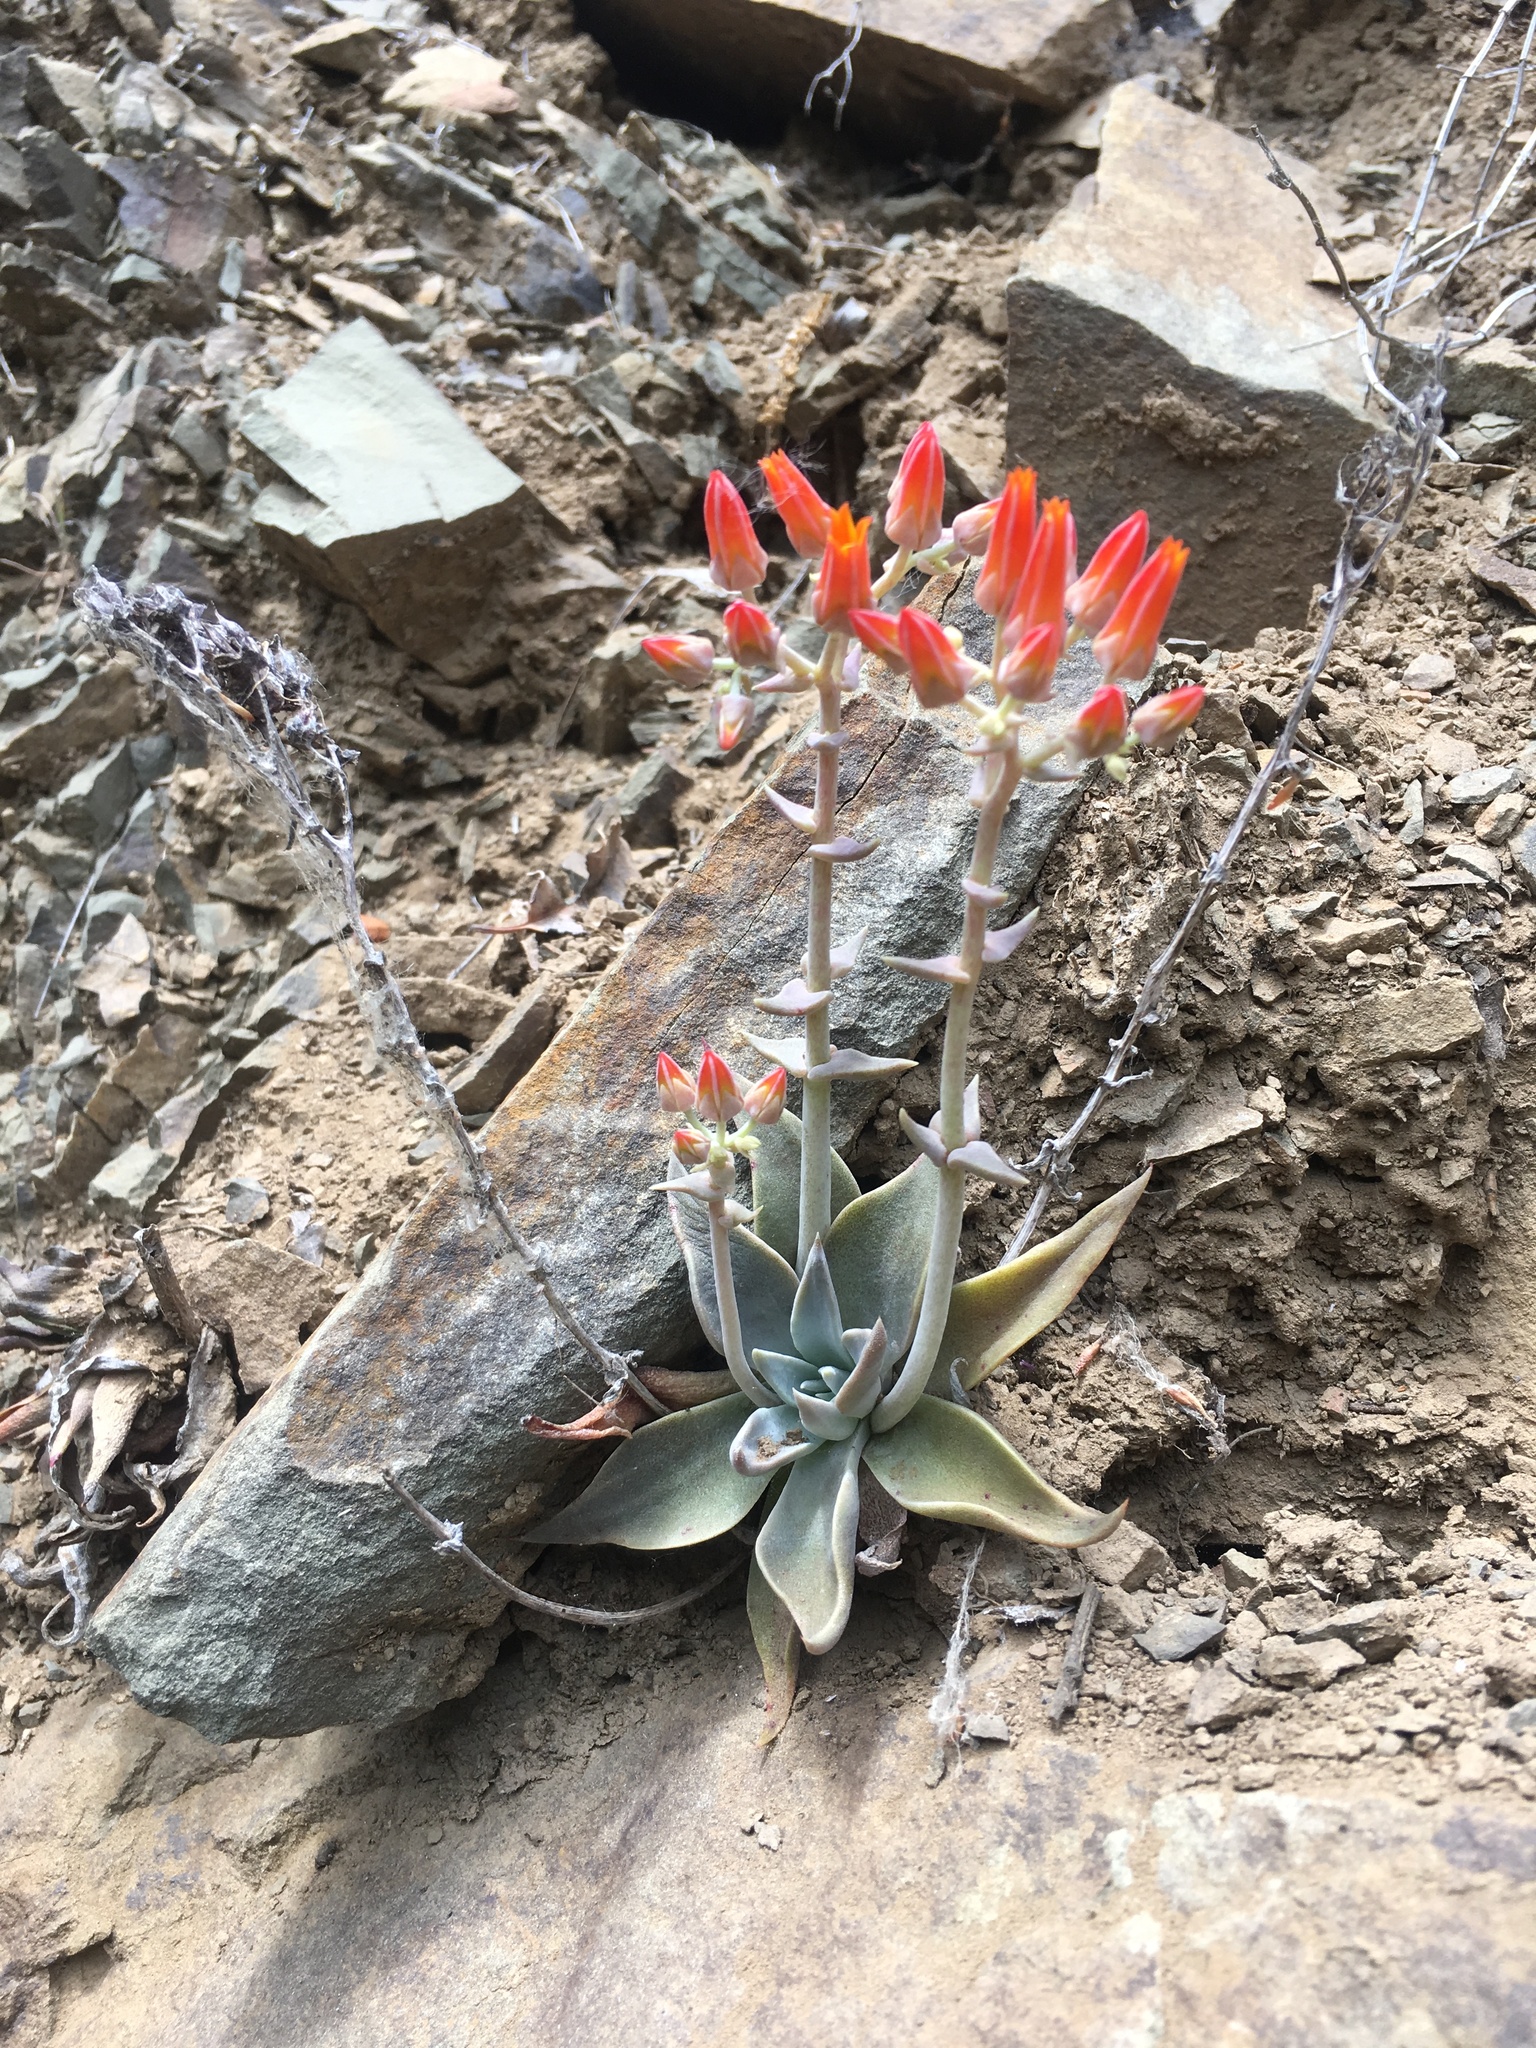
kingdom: Plantae
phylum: Tracheophyta
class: Magnoliopsida
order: Saxifragales
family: Crassulaceae
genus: Dudleya
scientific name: Dudleya cymosa
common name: Canyon dudleya
